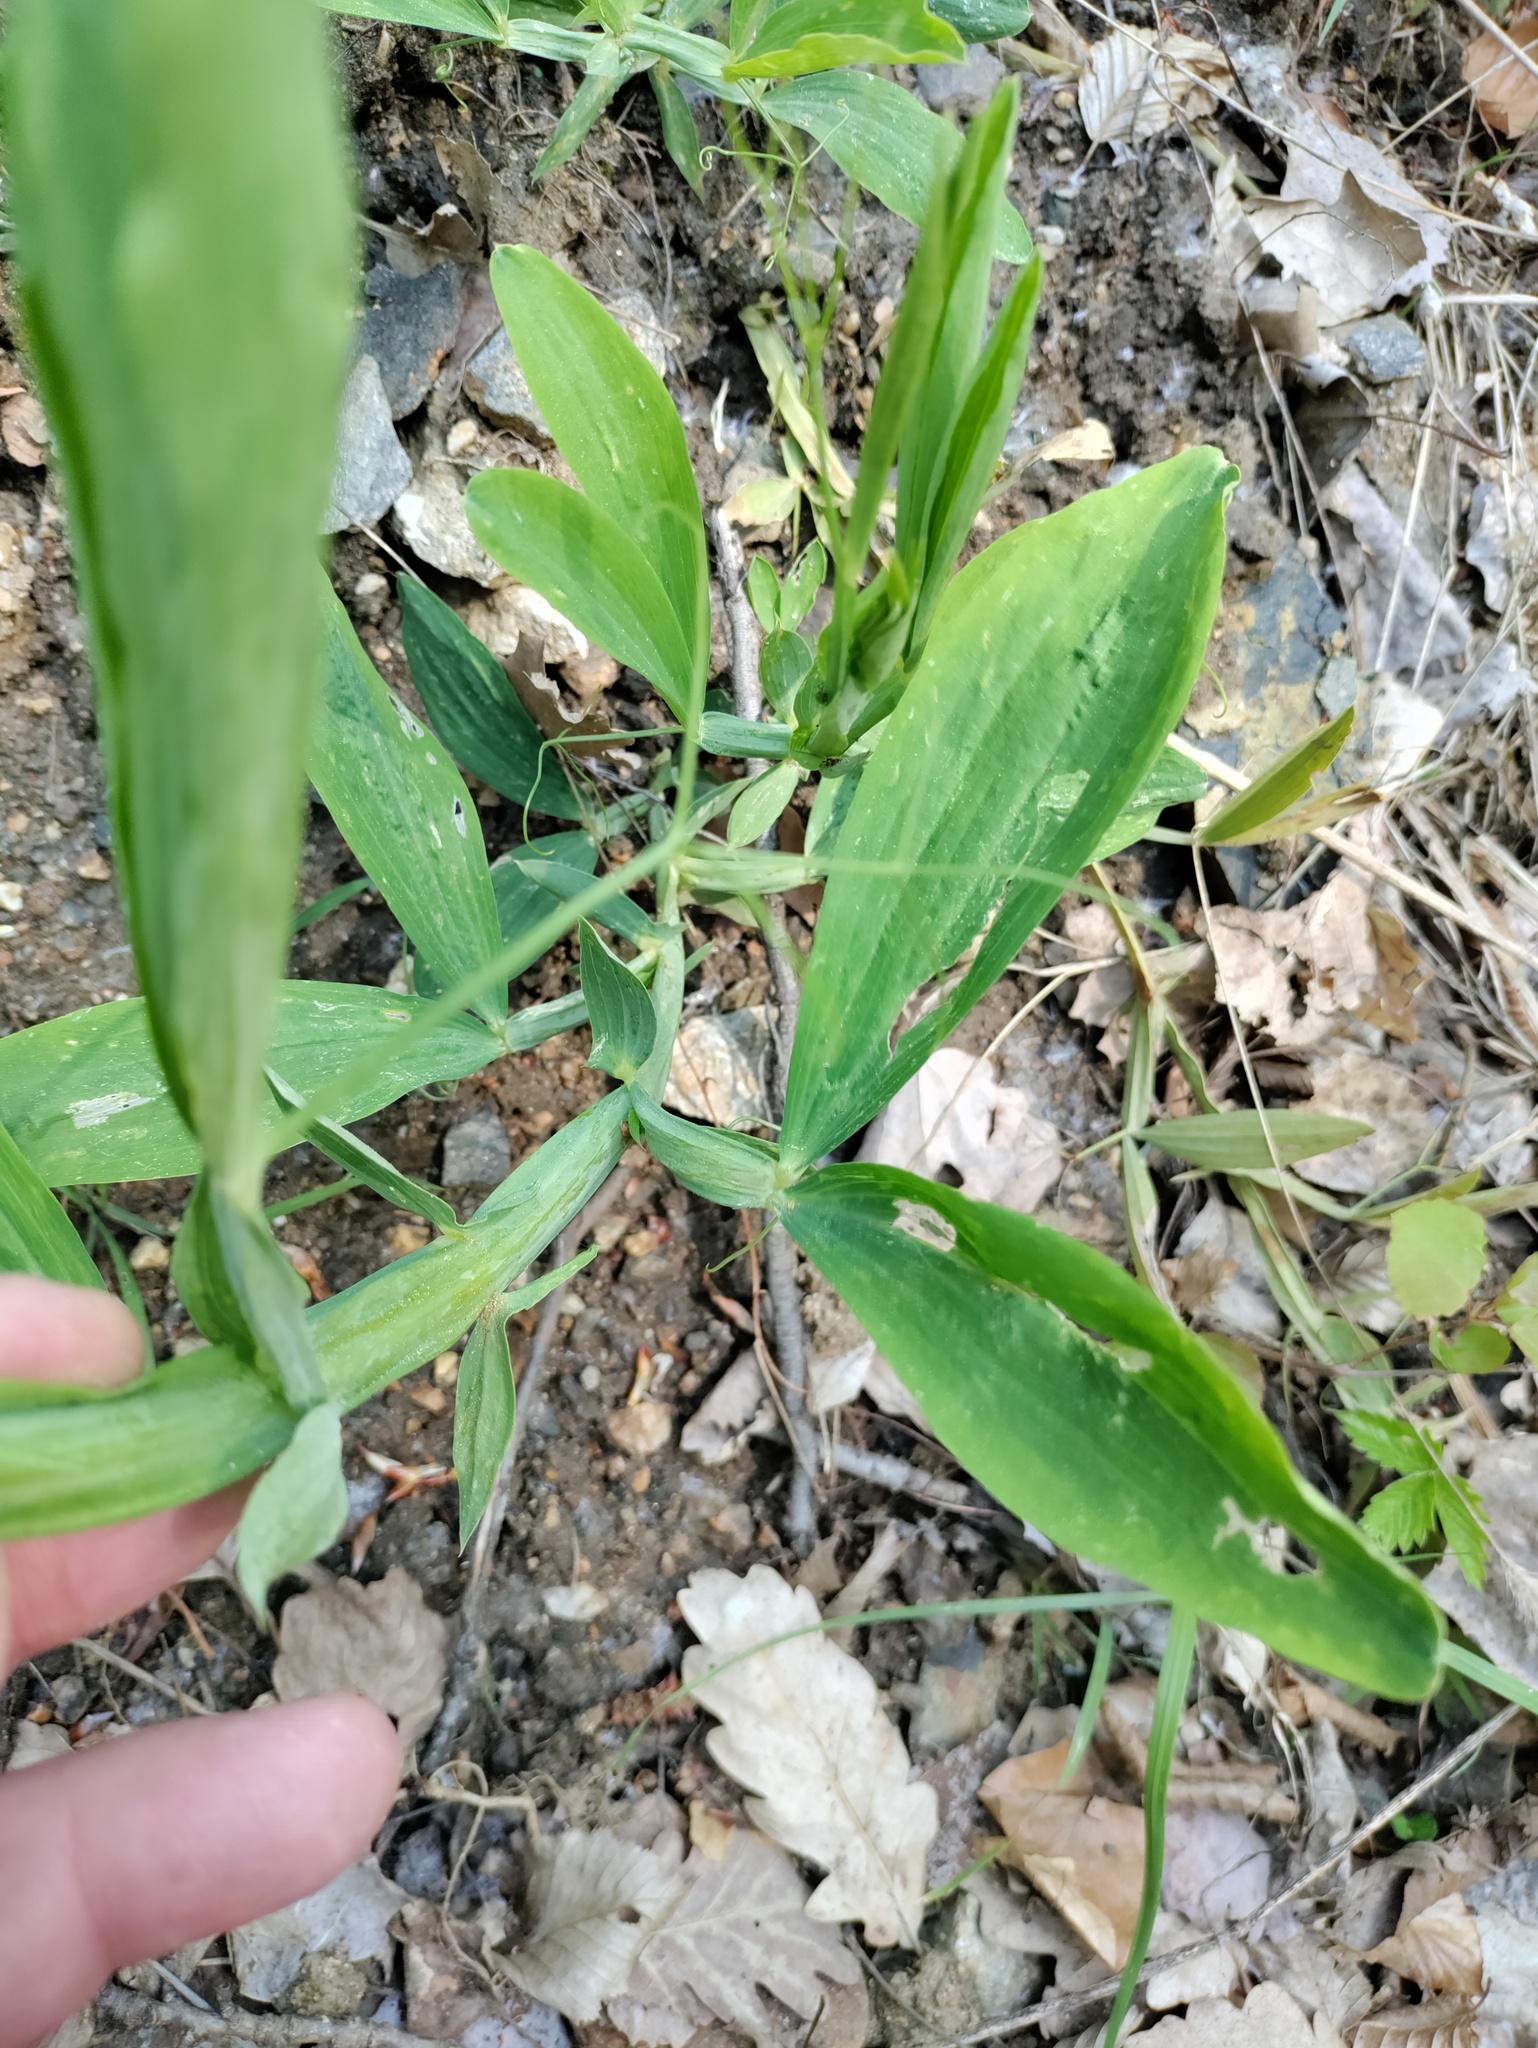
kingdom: Plantae
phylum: Tracheophyta
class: Magnoliopsida
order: Fabales
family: Fabaceae
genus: Lathyrus
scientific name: Lathyrus latifolius
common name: Perennial pea
